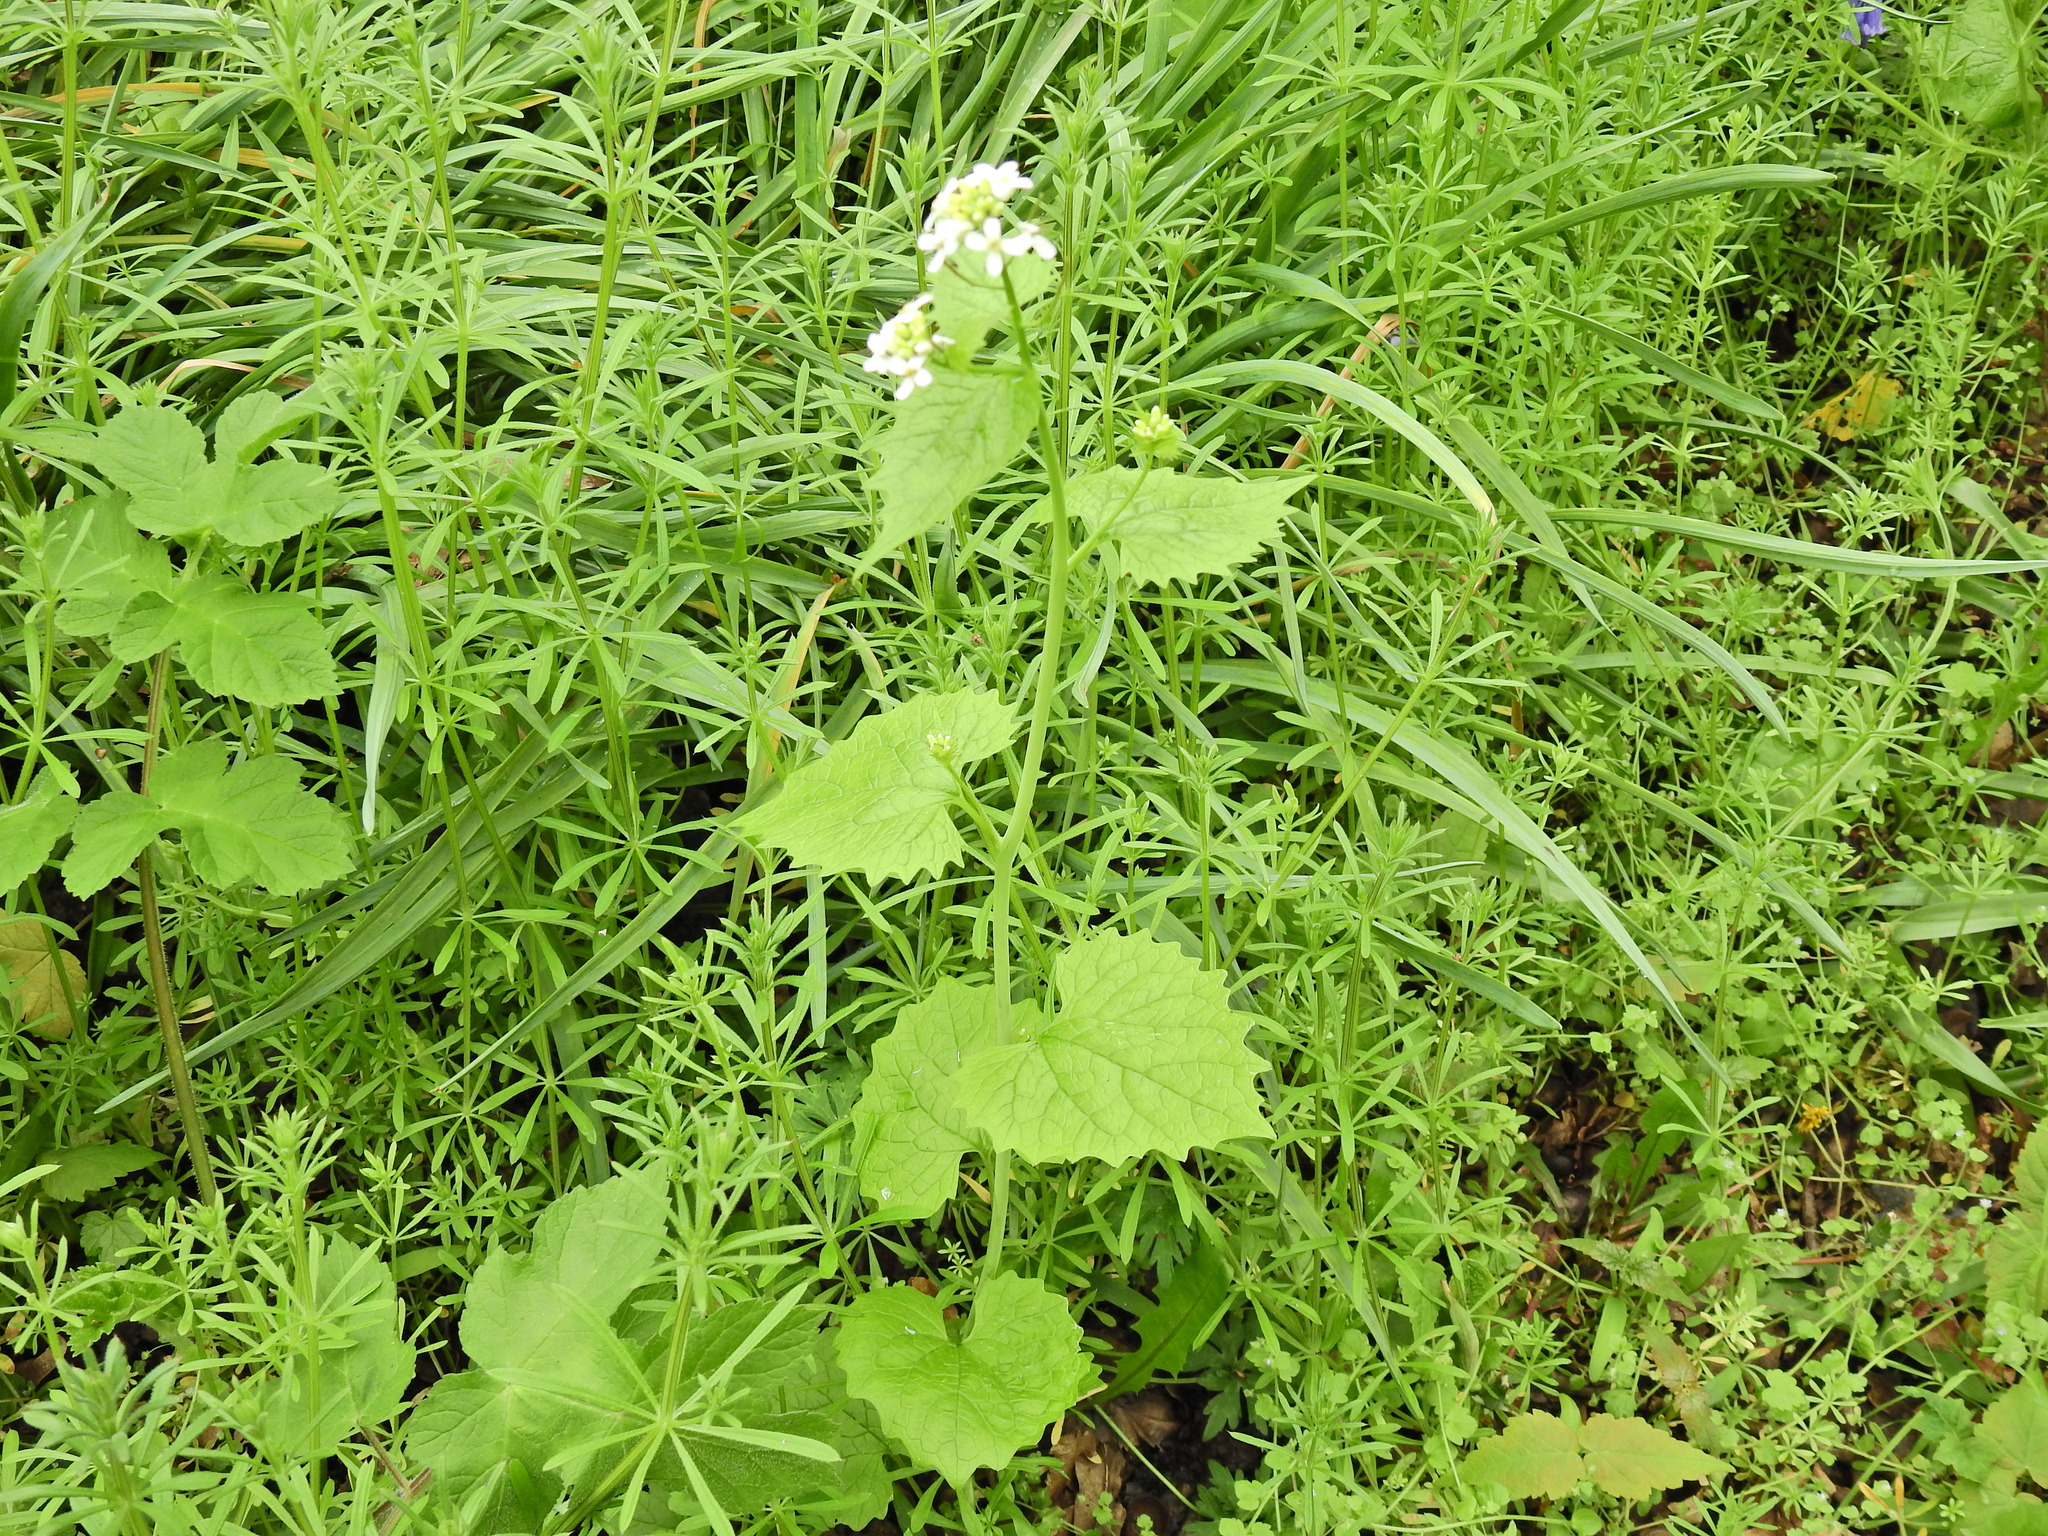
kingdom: Plantae
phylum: Tracheophyta
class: Magnoliopsida
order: Brassicales
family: Brassicaceae
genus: Alliaria
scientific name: Alliaria petiolata
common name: Garlic mustard
